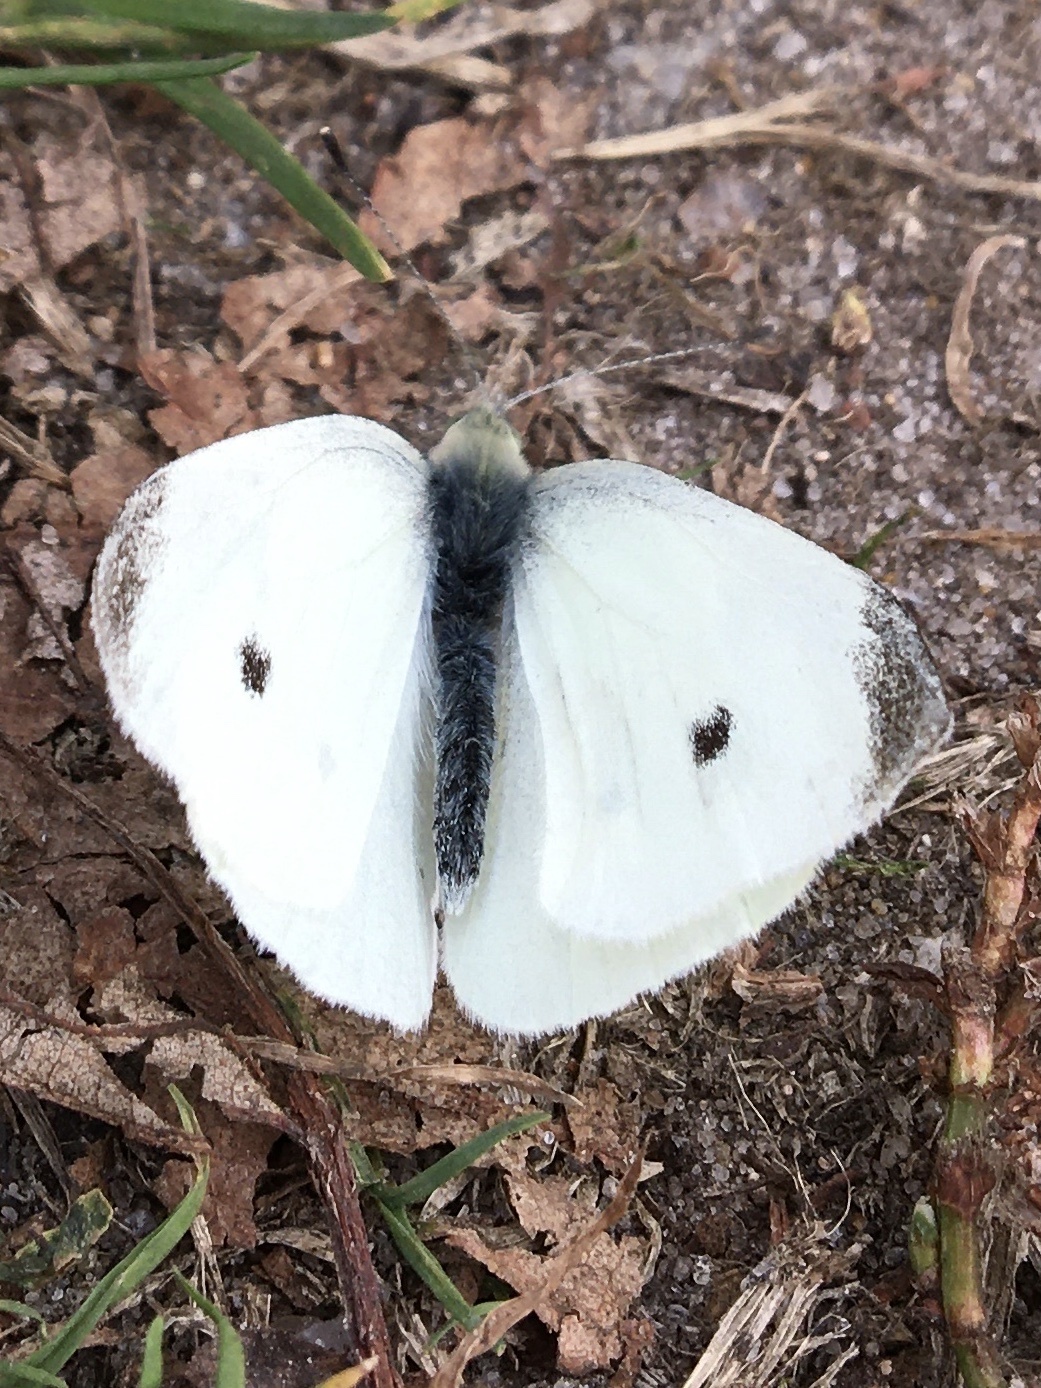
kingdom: Animalia
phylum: Arthropoda
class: Insecta
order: Lepidoptera
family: Pieridae
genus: Pieris
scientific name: Pieris rapae
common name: Small white
